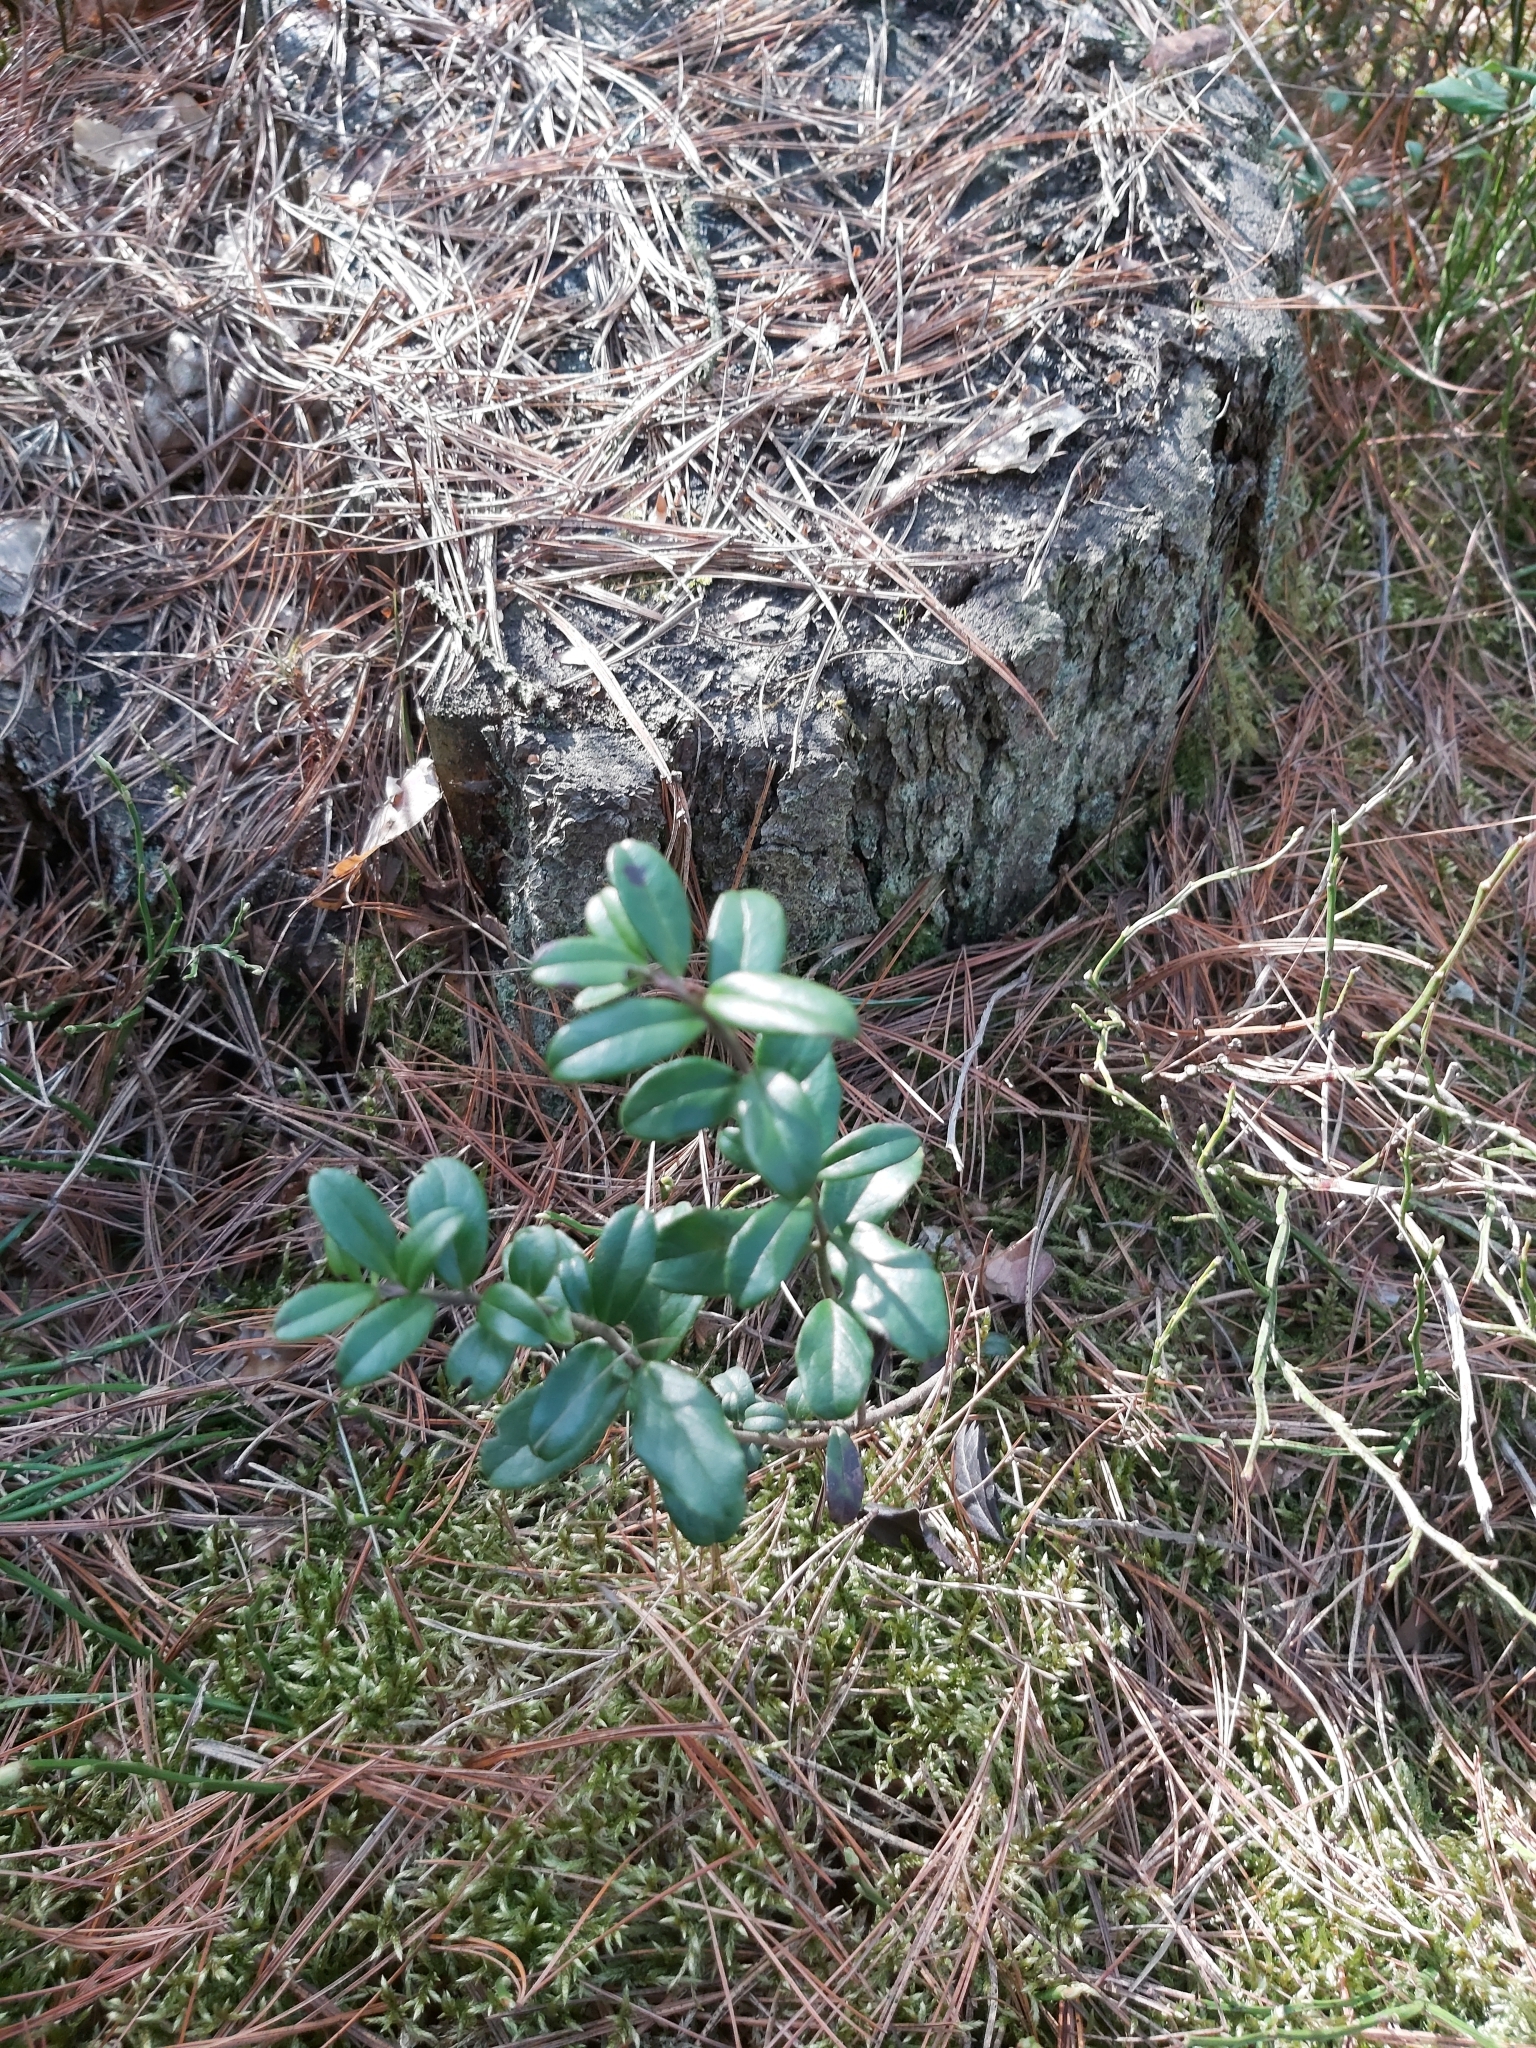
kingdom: Plantae
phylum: Tracheophyta
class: Magnoliopsida
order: Ericales
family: Ericaceae
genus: Vaccinium
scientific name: Vaccinium vitis-idaea
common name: Cowberry
